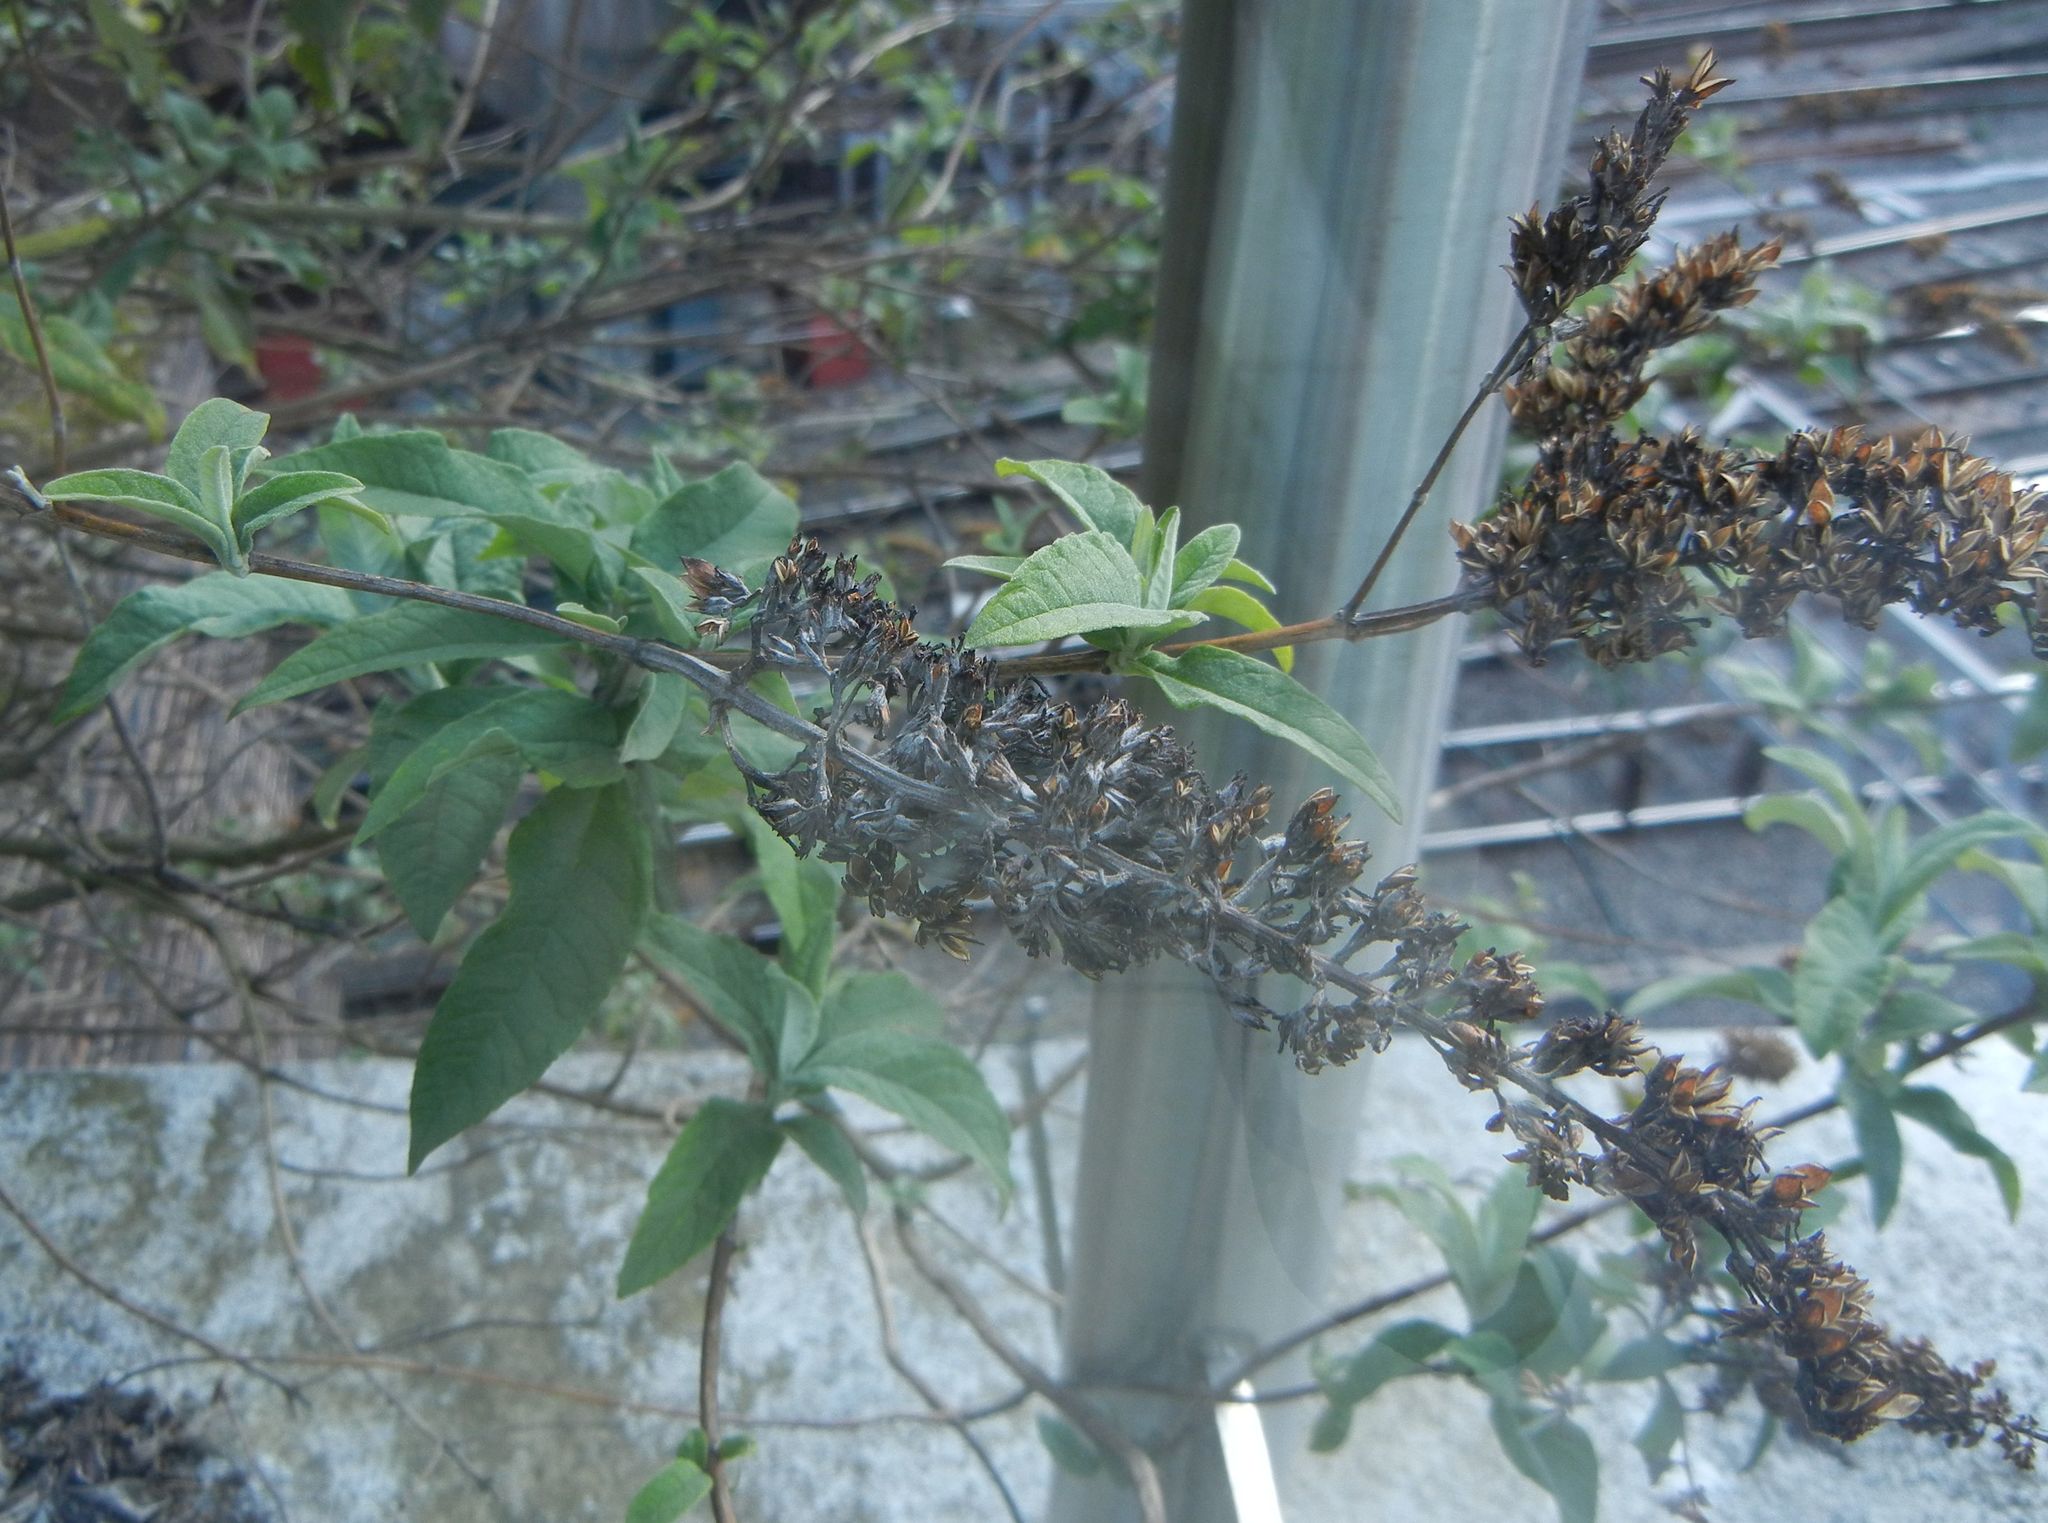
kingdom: Plantae
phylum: Tracheophyta
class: Magnoliopsida
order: Lamiales
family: Scrophulariaceae
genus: Buddleja
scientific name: Buddleja davidii
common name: Butterfly-bush
